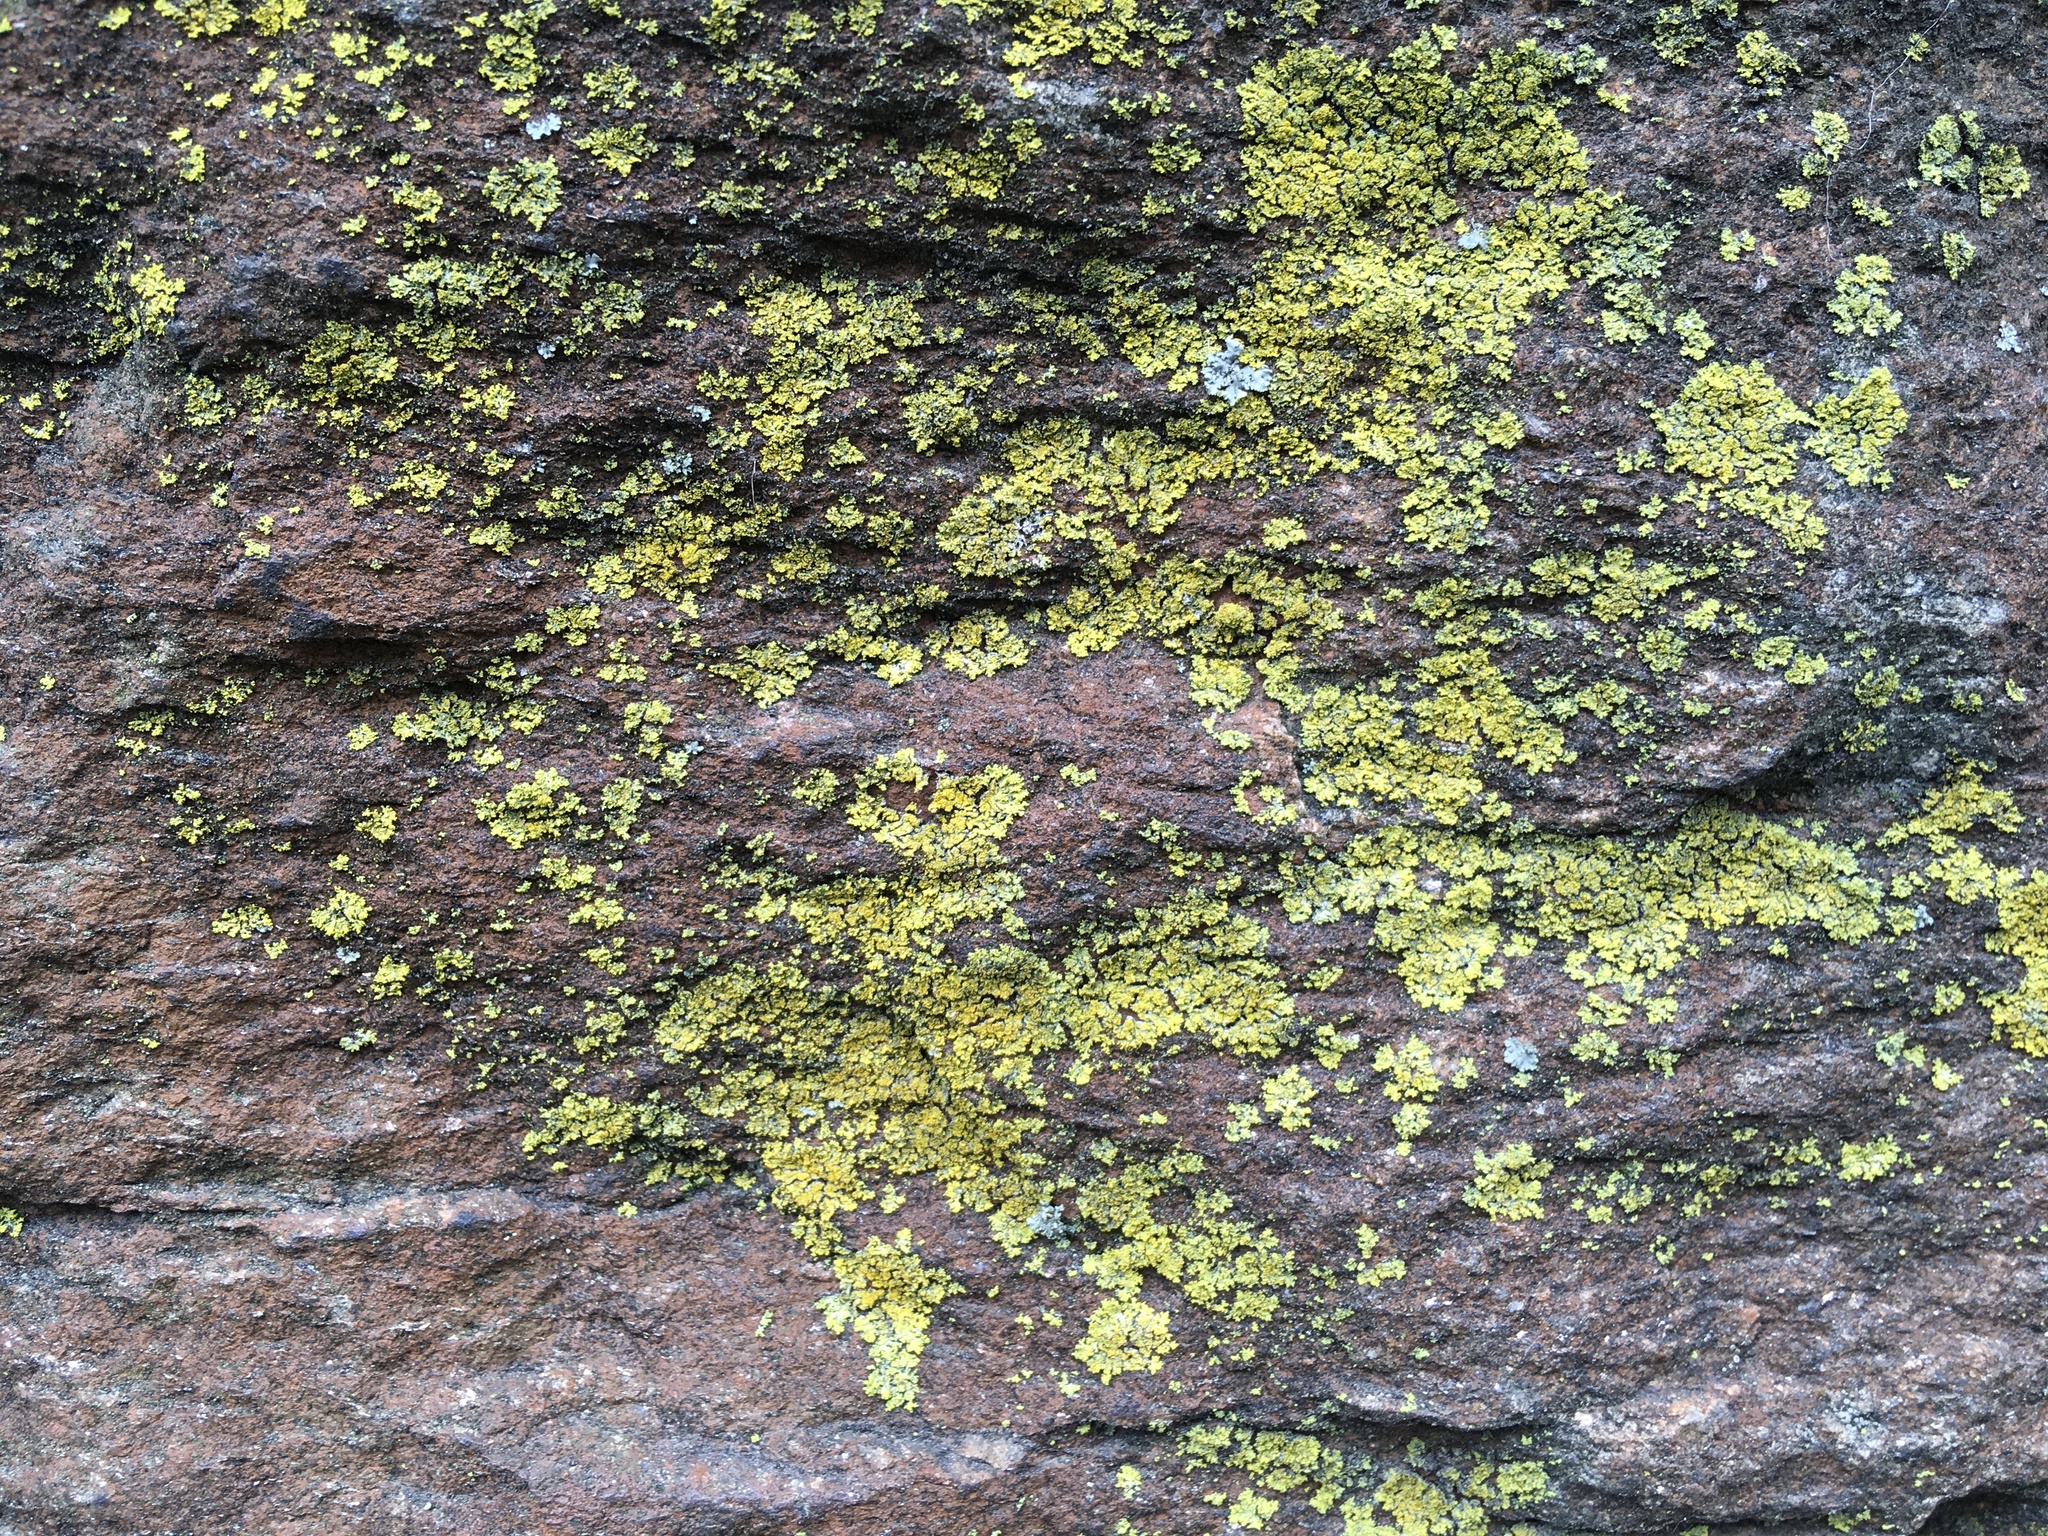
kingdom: Fungi
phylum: Ascomycota
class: Candelariomycetes
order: Candelariales
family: Candelariaceae
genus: Candelaria
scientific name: Candelaria concolor
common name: Candleflame lichen
